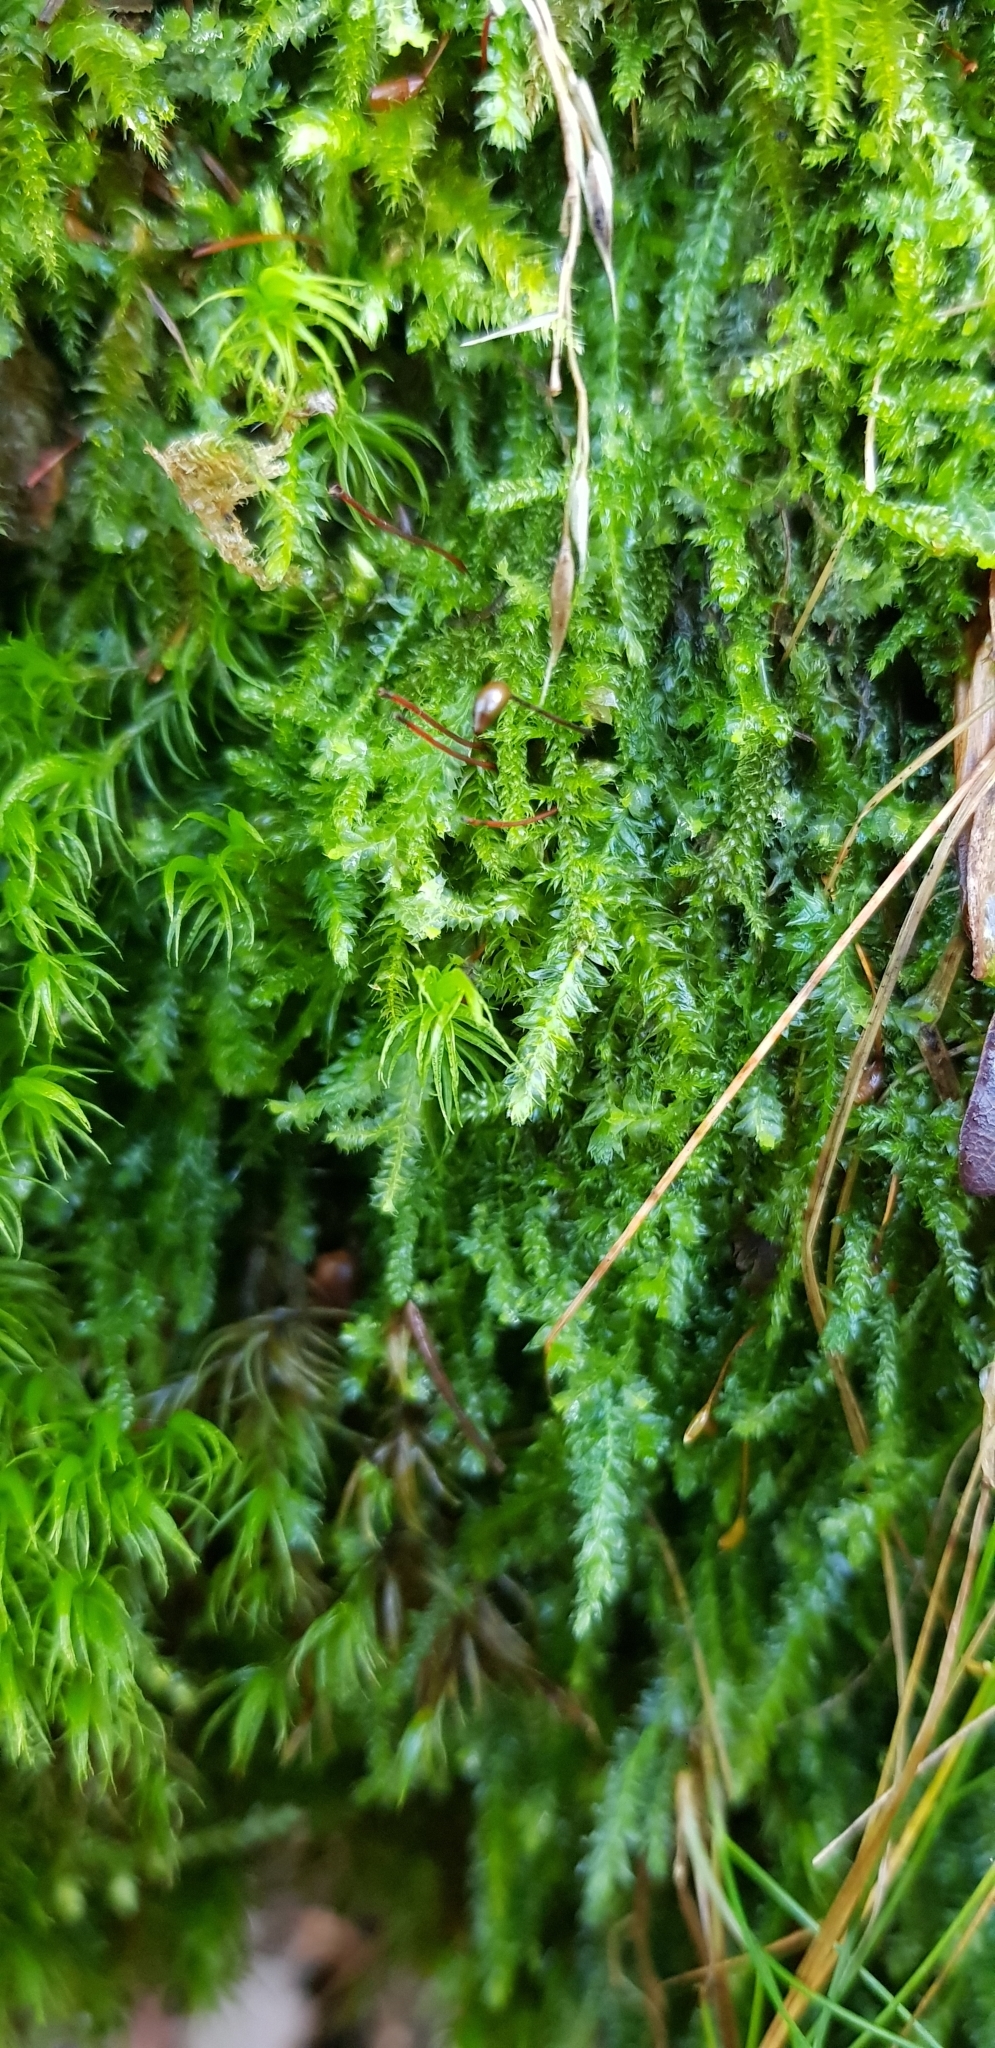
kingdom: Plantae
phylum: Bryophyta
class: Bryopsida
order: Hypnales
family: Plagiotheciaceae
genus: Plagiothecium
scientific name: Plagiothecium denticulatum
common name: Dented silk moss
